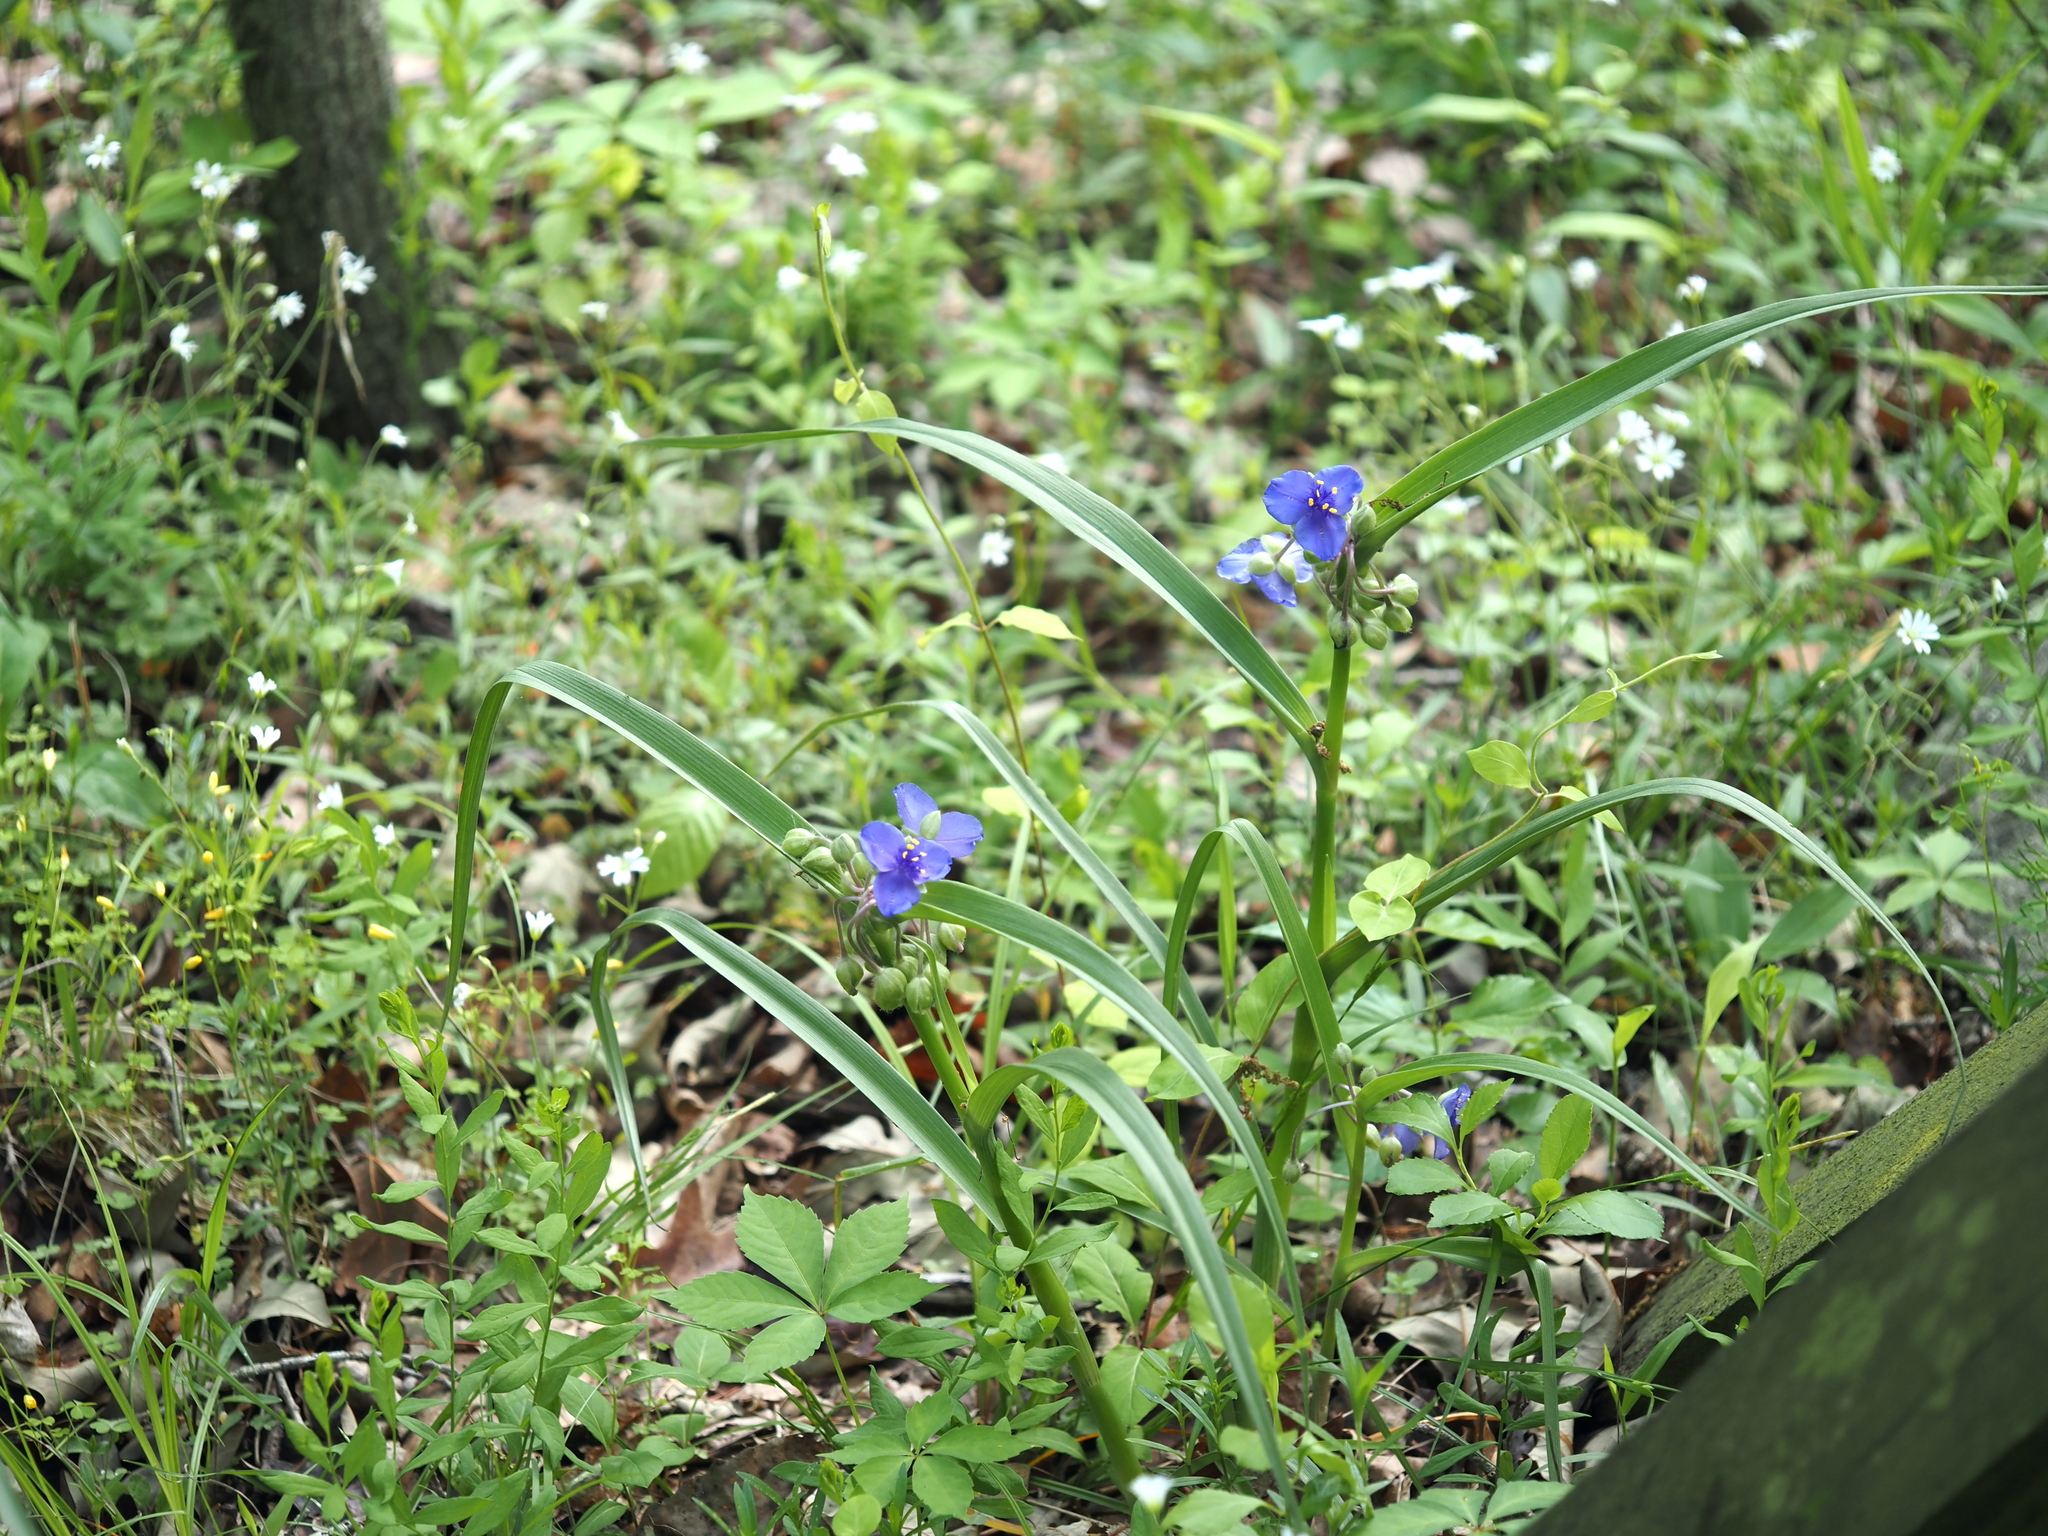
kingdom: Plantae
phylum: Tracheophyta
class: Liliopsida
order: Commelinales
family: Commelinaceae
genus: Tradescantia
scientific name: Tradescantia virginiana
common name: Spiderwort
